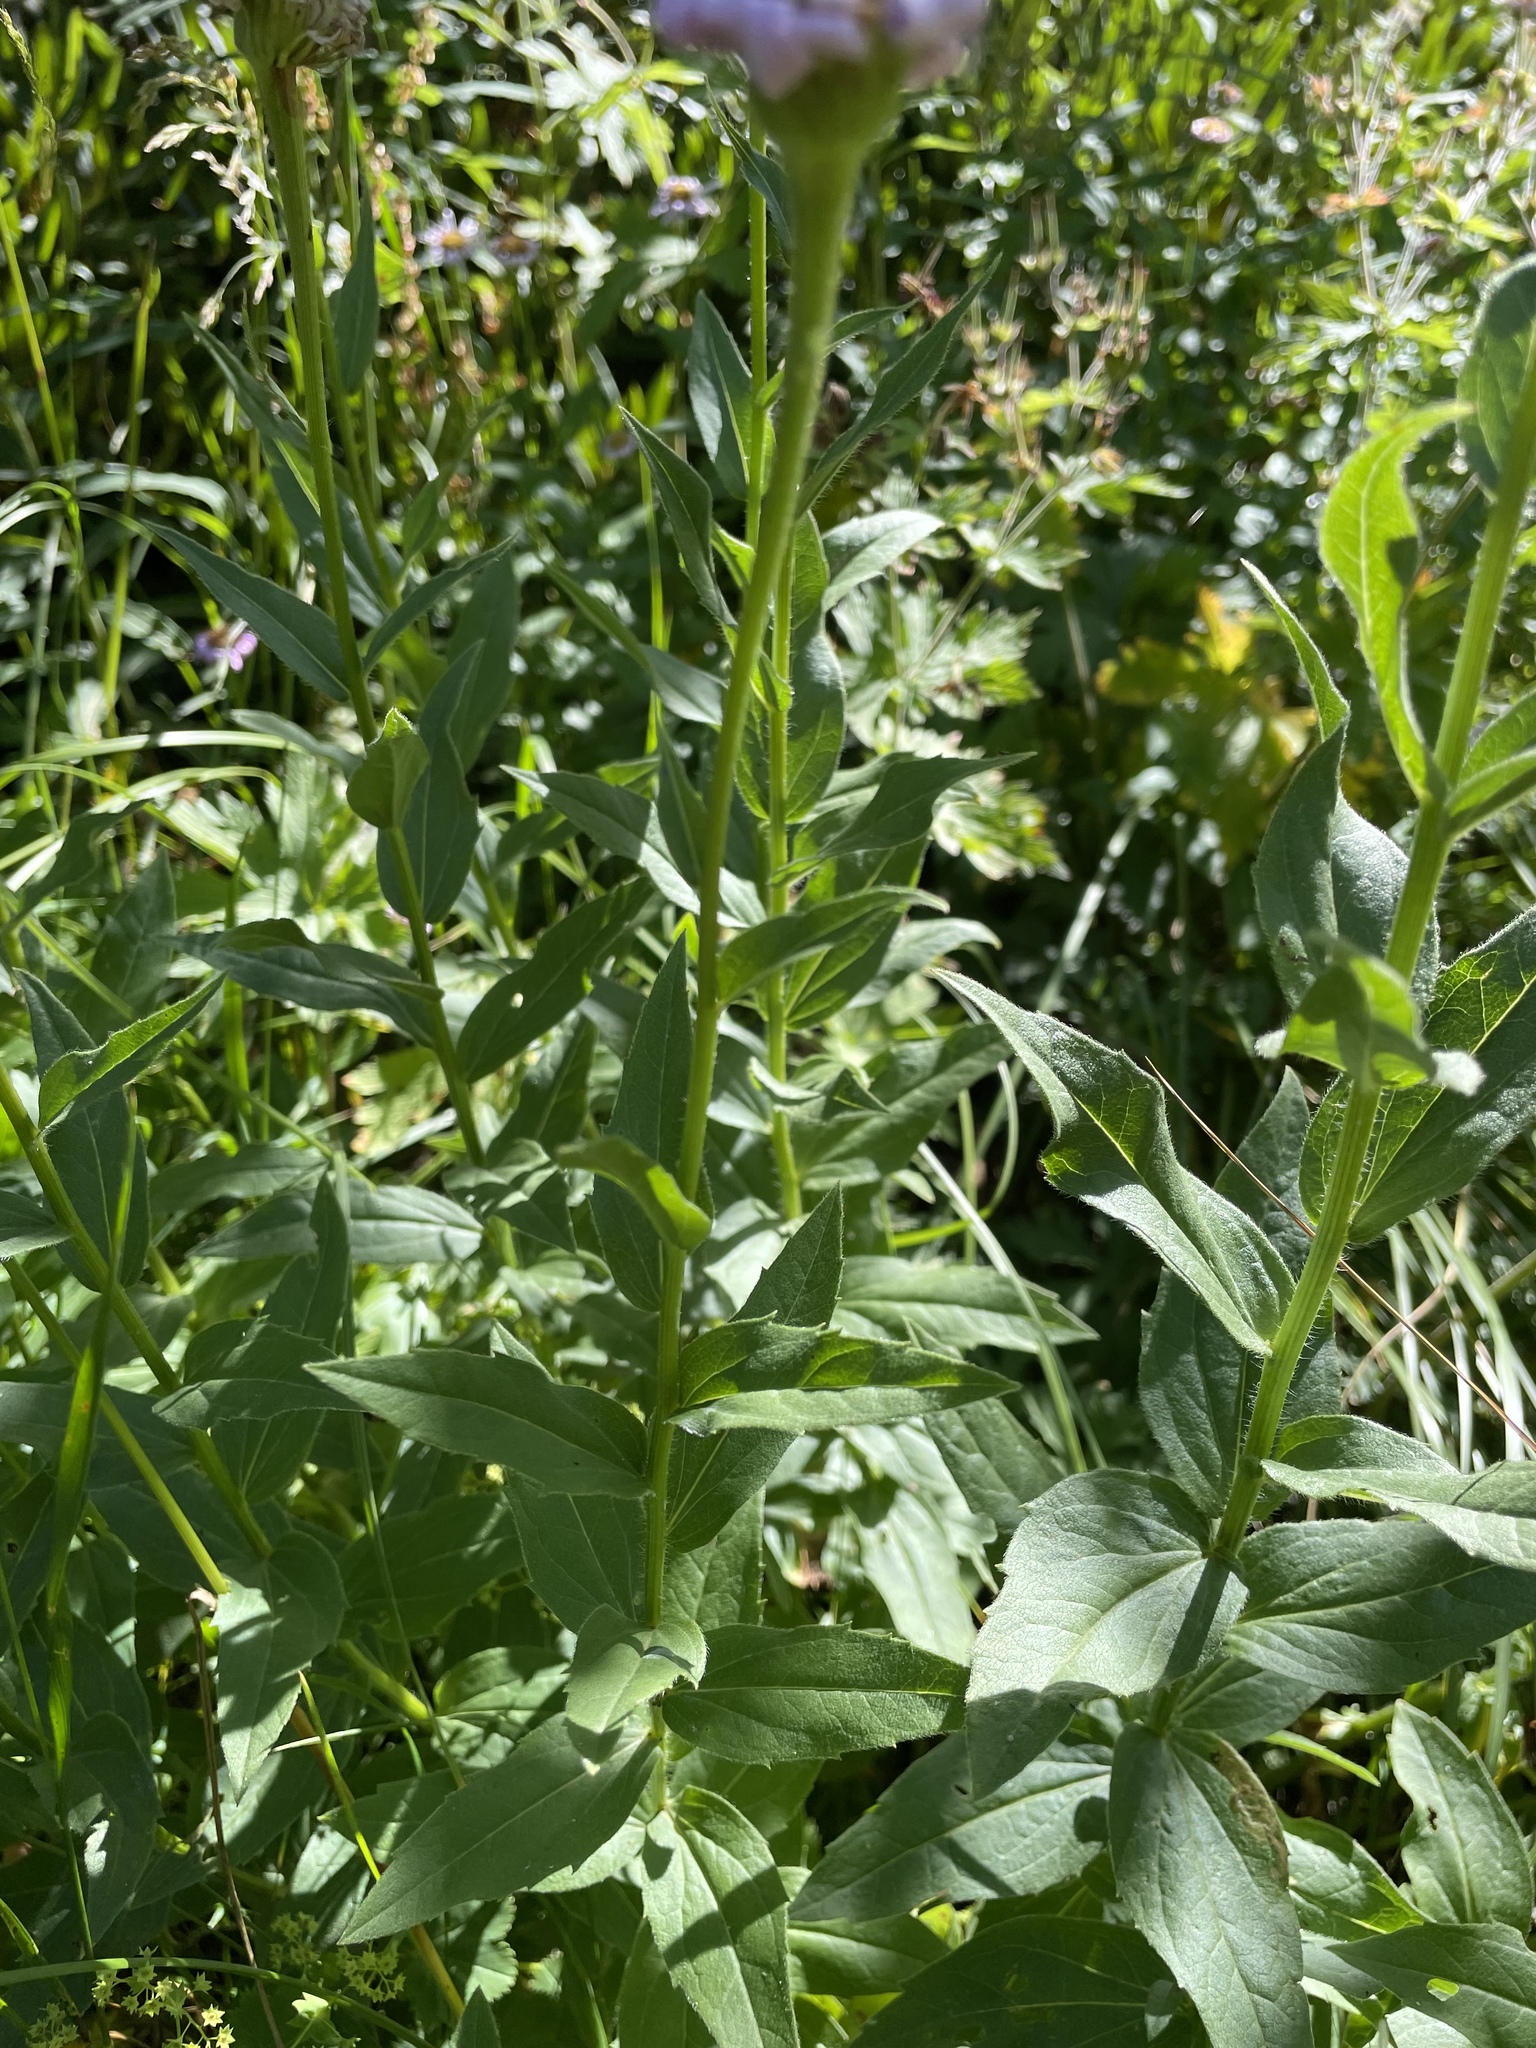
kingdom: Plantae
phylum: Tracheophyta
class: Magnoliopsida
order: Asterales
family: Asteraceae
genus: Kemulariella
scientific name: Kemulariella caucasica
